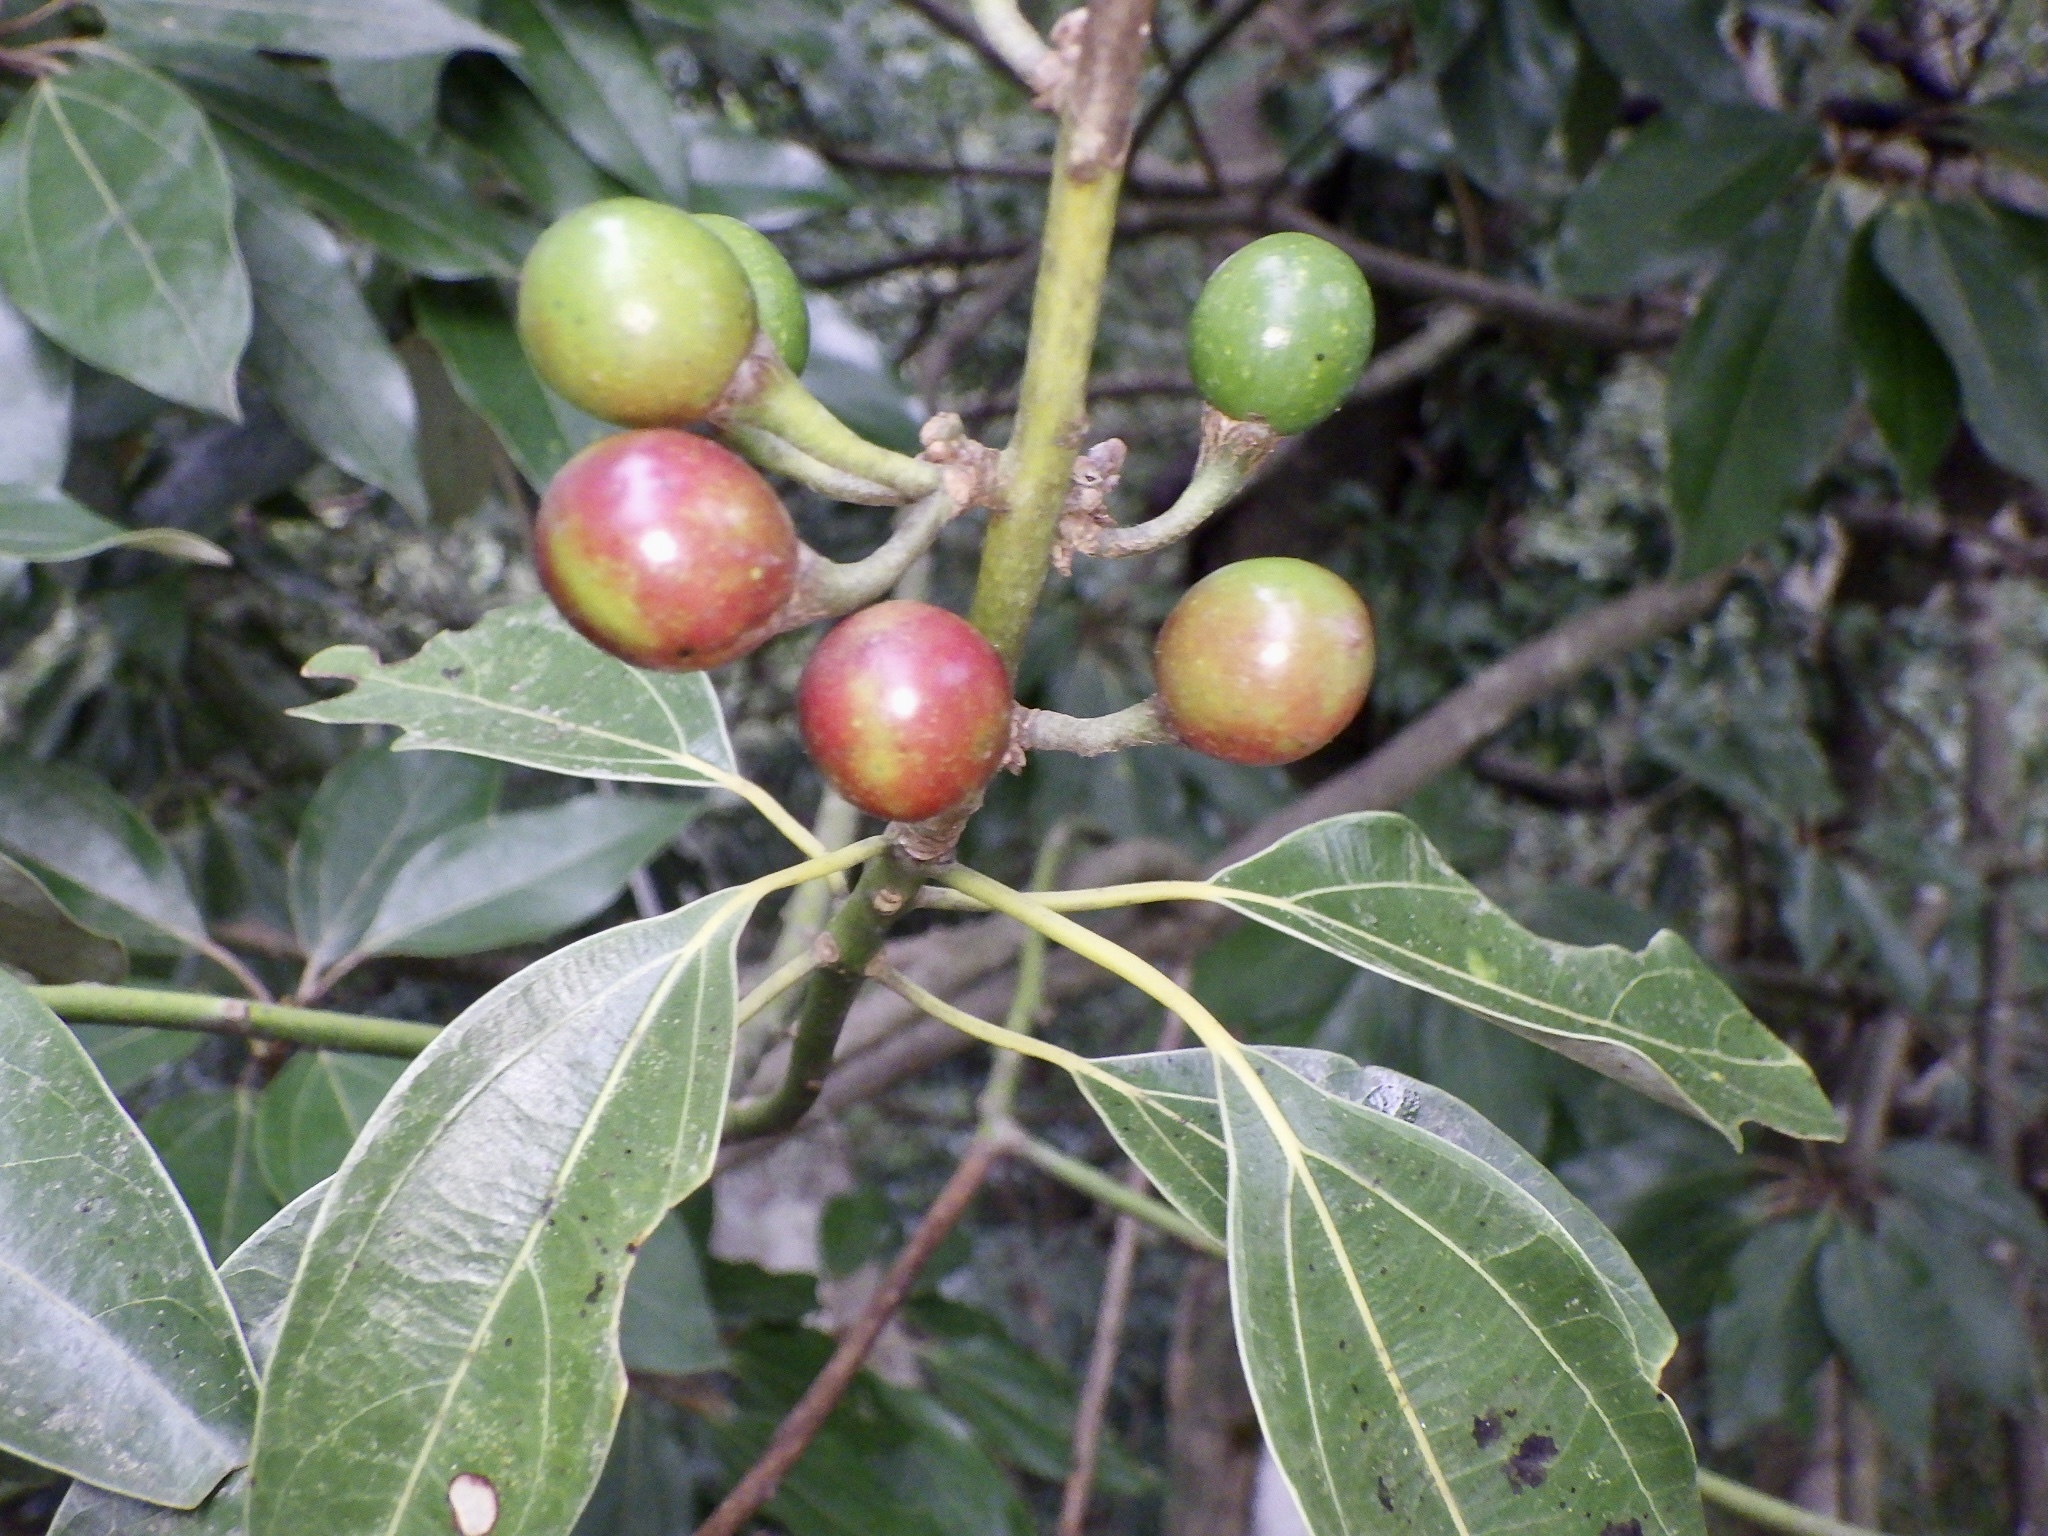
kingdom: Plantae
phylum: Tracheophyta
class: Magnoliopsida
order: Laurales
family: Lauraceae
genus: Neolitsea
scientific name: Neolitsea sericea
